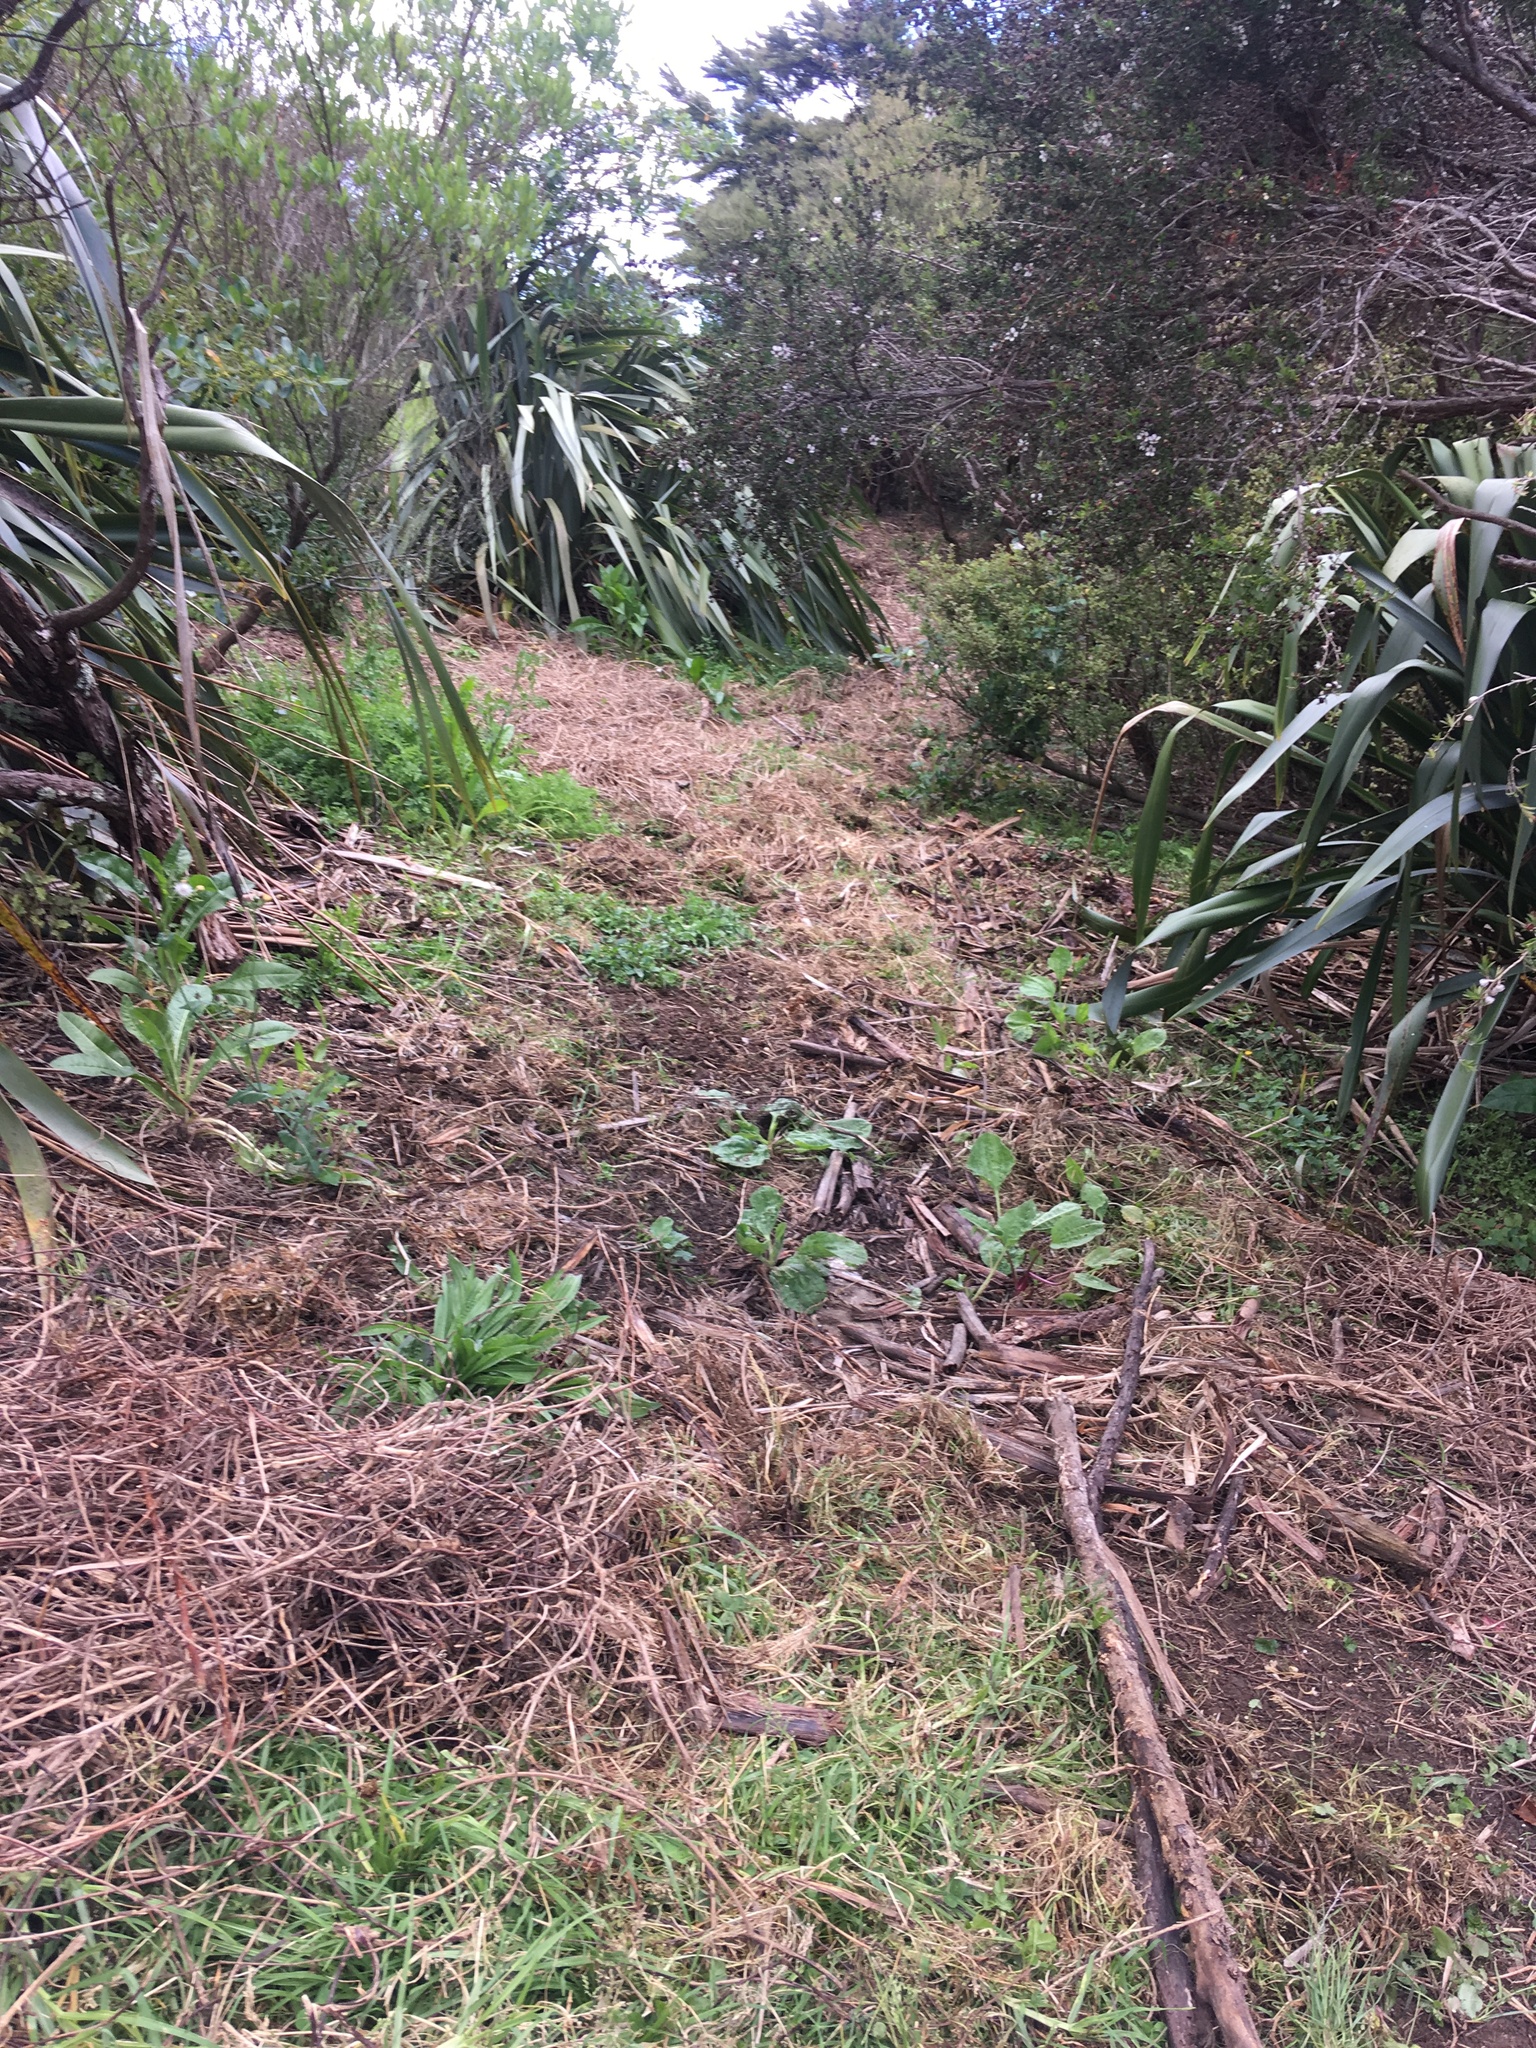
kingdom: Plantae
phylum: Tracheophyta
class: Liliopsida
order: Poales
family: Poaceae
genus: Cenchrus
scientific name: Cenchrus clandestinus
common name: Kikuyugrass
